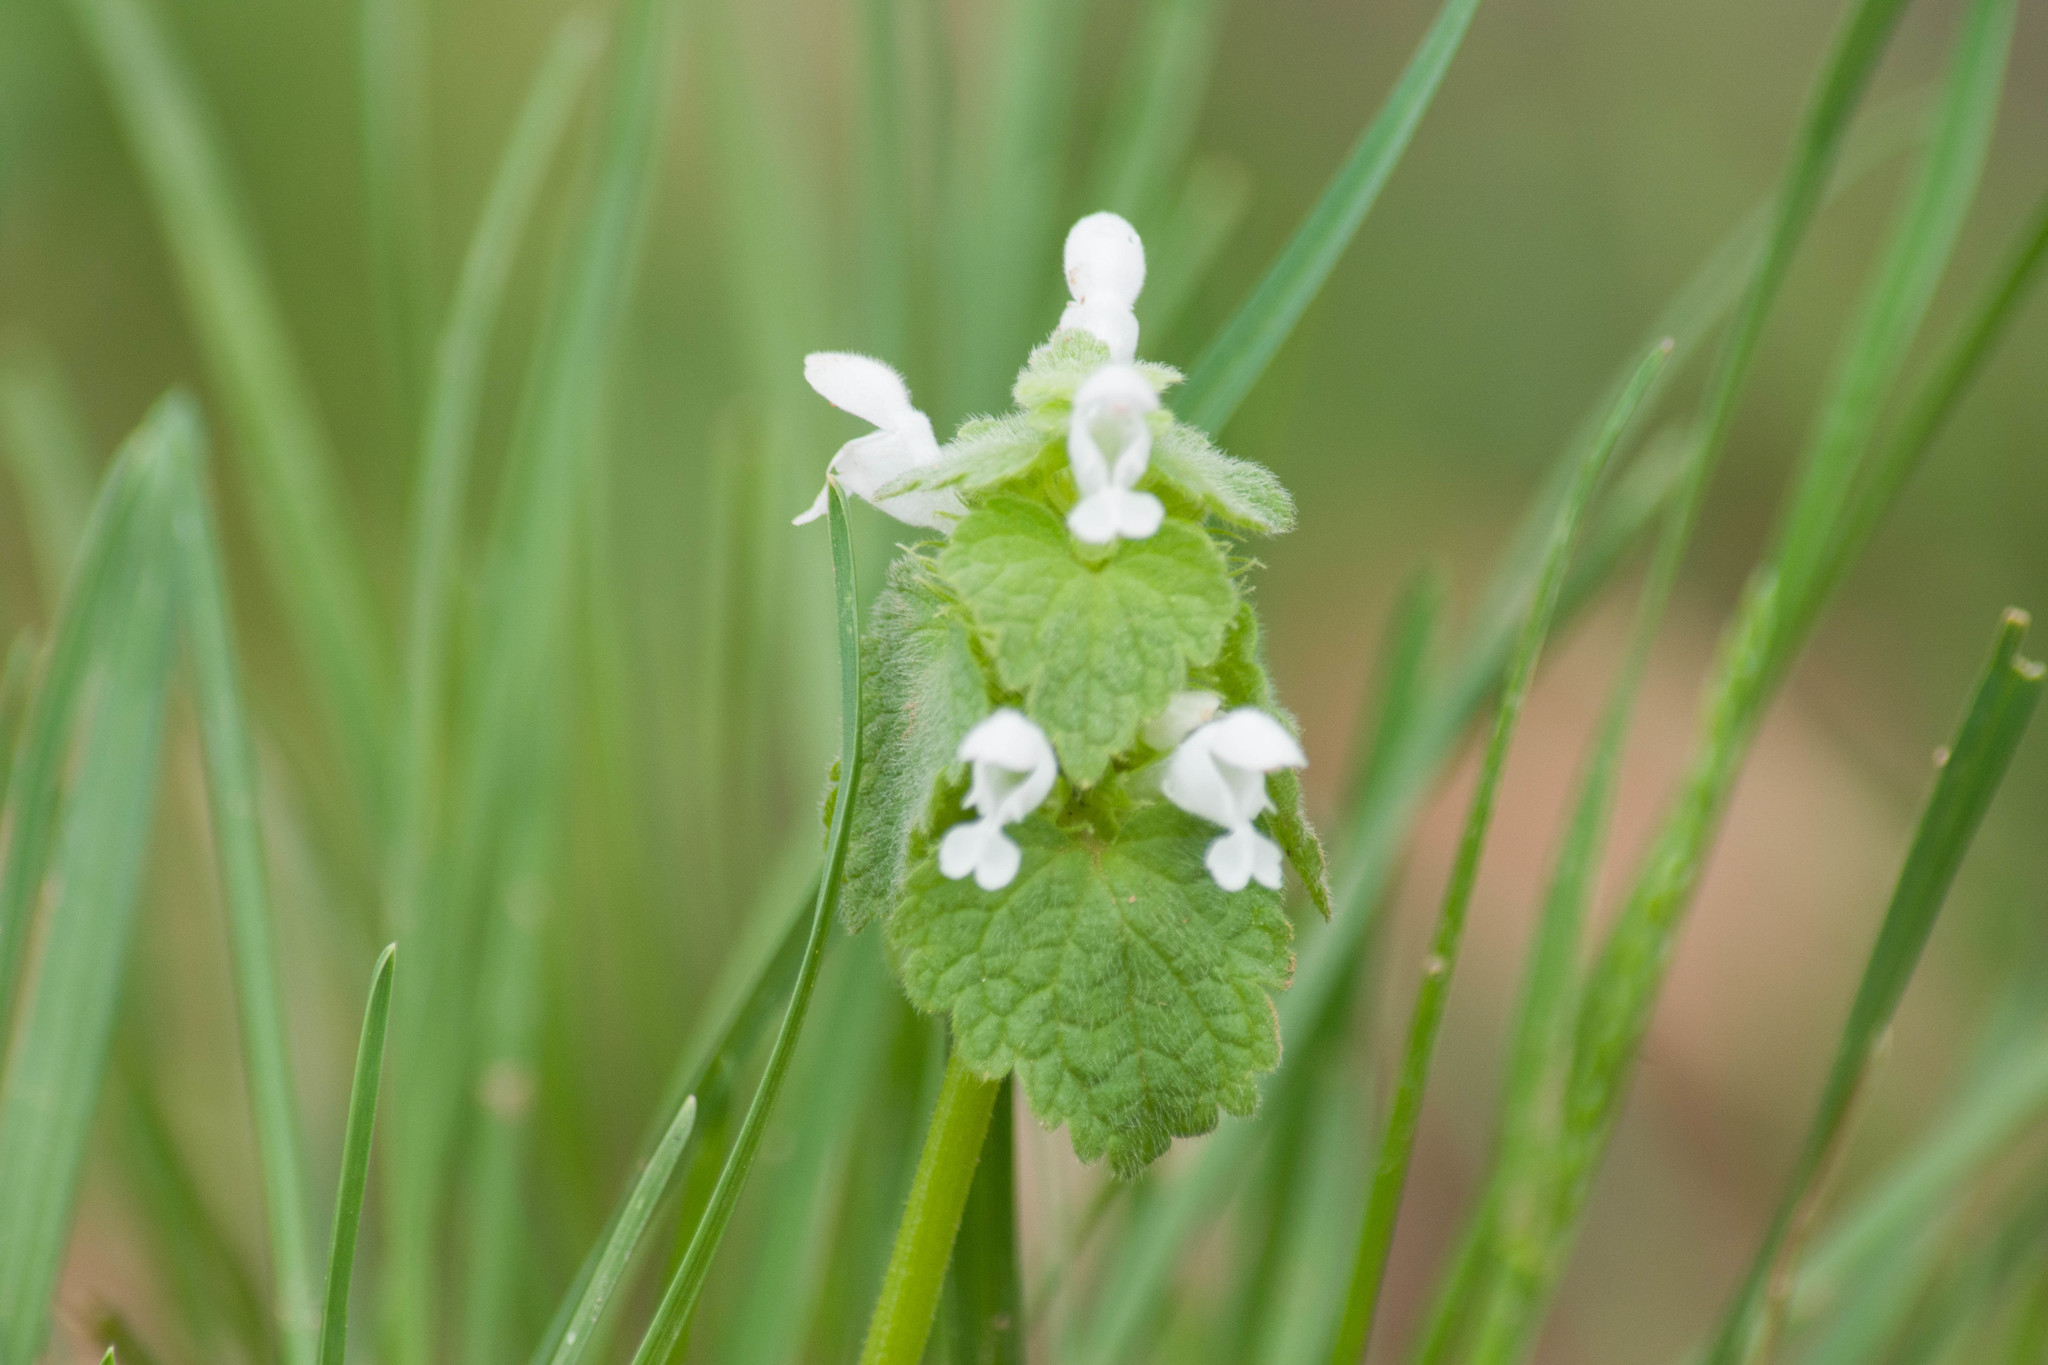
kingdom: Plantae
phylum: Tracheophyta
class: Magnoliopsida
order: Lamiales
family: Lamiaceae
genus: Lamium
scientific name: Lamium purpureum
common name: Red dead-nettle
